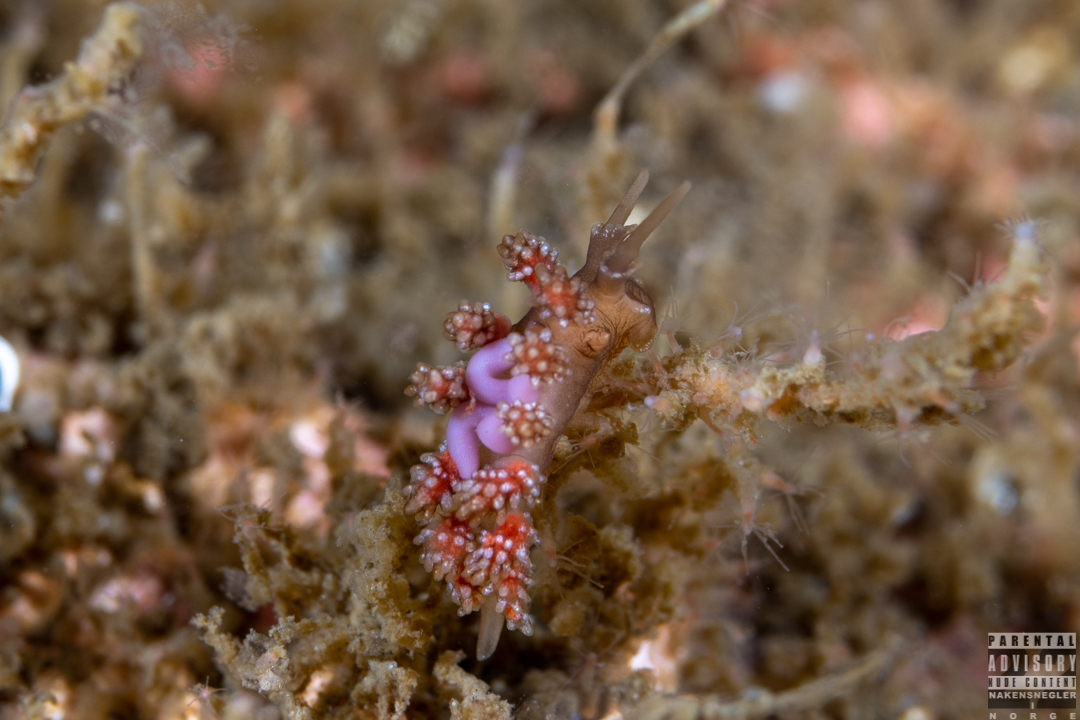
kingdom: Animalia
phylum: Mollusca
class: Gastropoda
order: Nudibranchia
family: Dotidae
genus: Doto
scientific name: Doto fragilis
